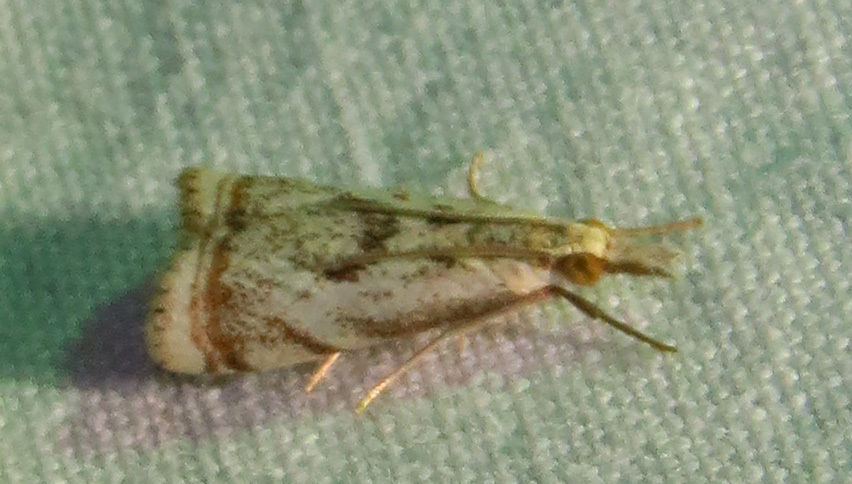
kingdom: Animalia
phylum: Arthropoda
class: Insecta
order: Lepidoptera
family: Crambidae
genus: Microcrambus
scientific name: Microcrambus elegans
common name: Elegant grass-veneer
